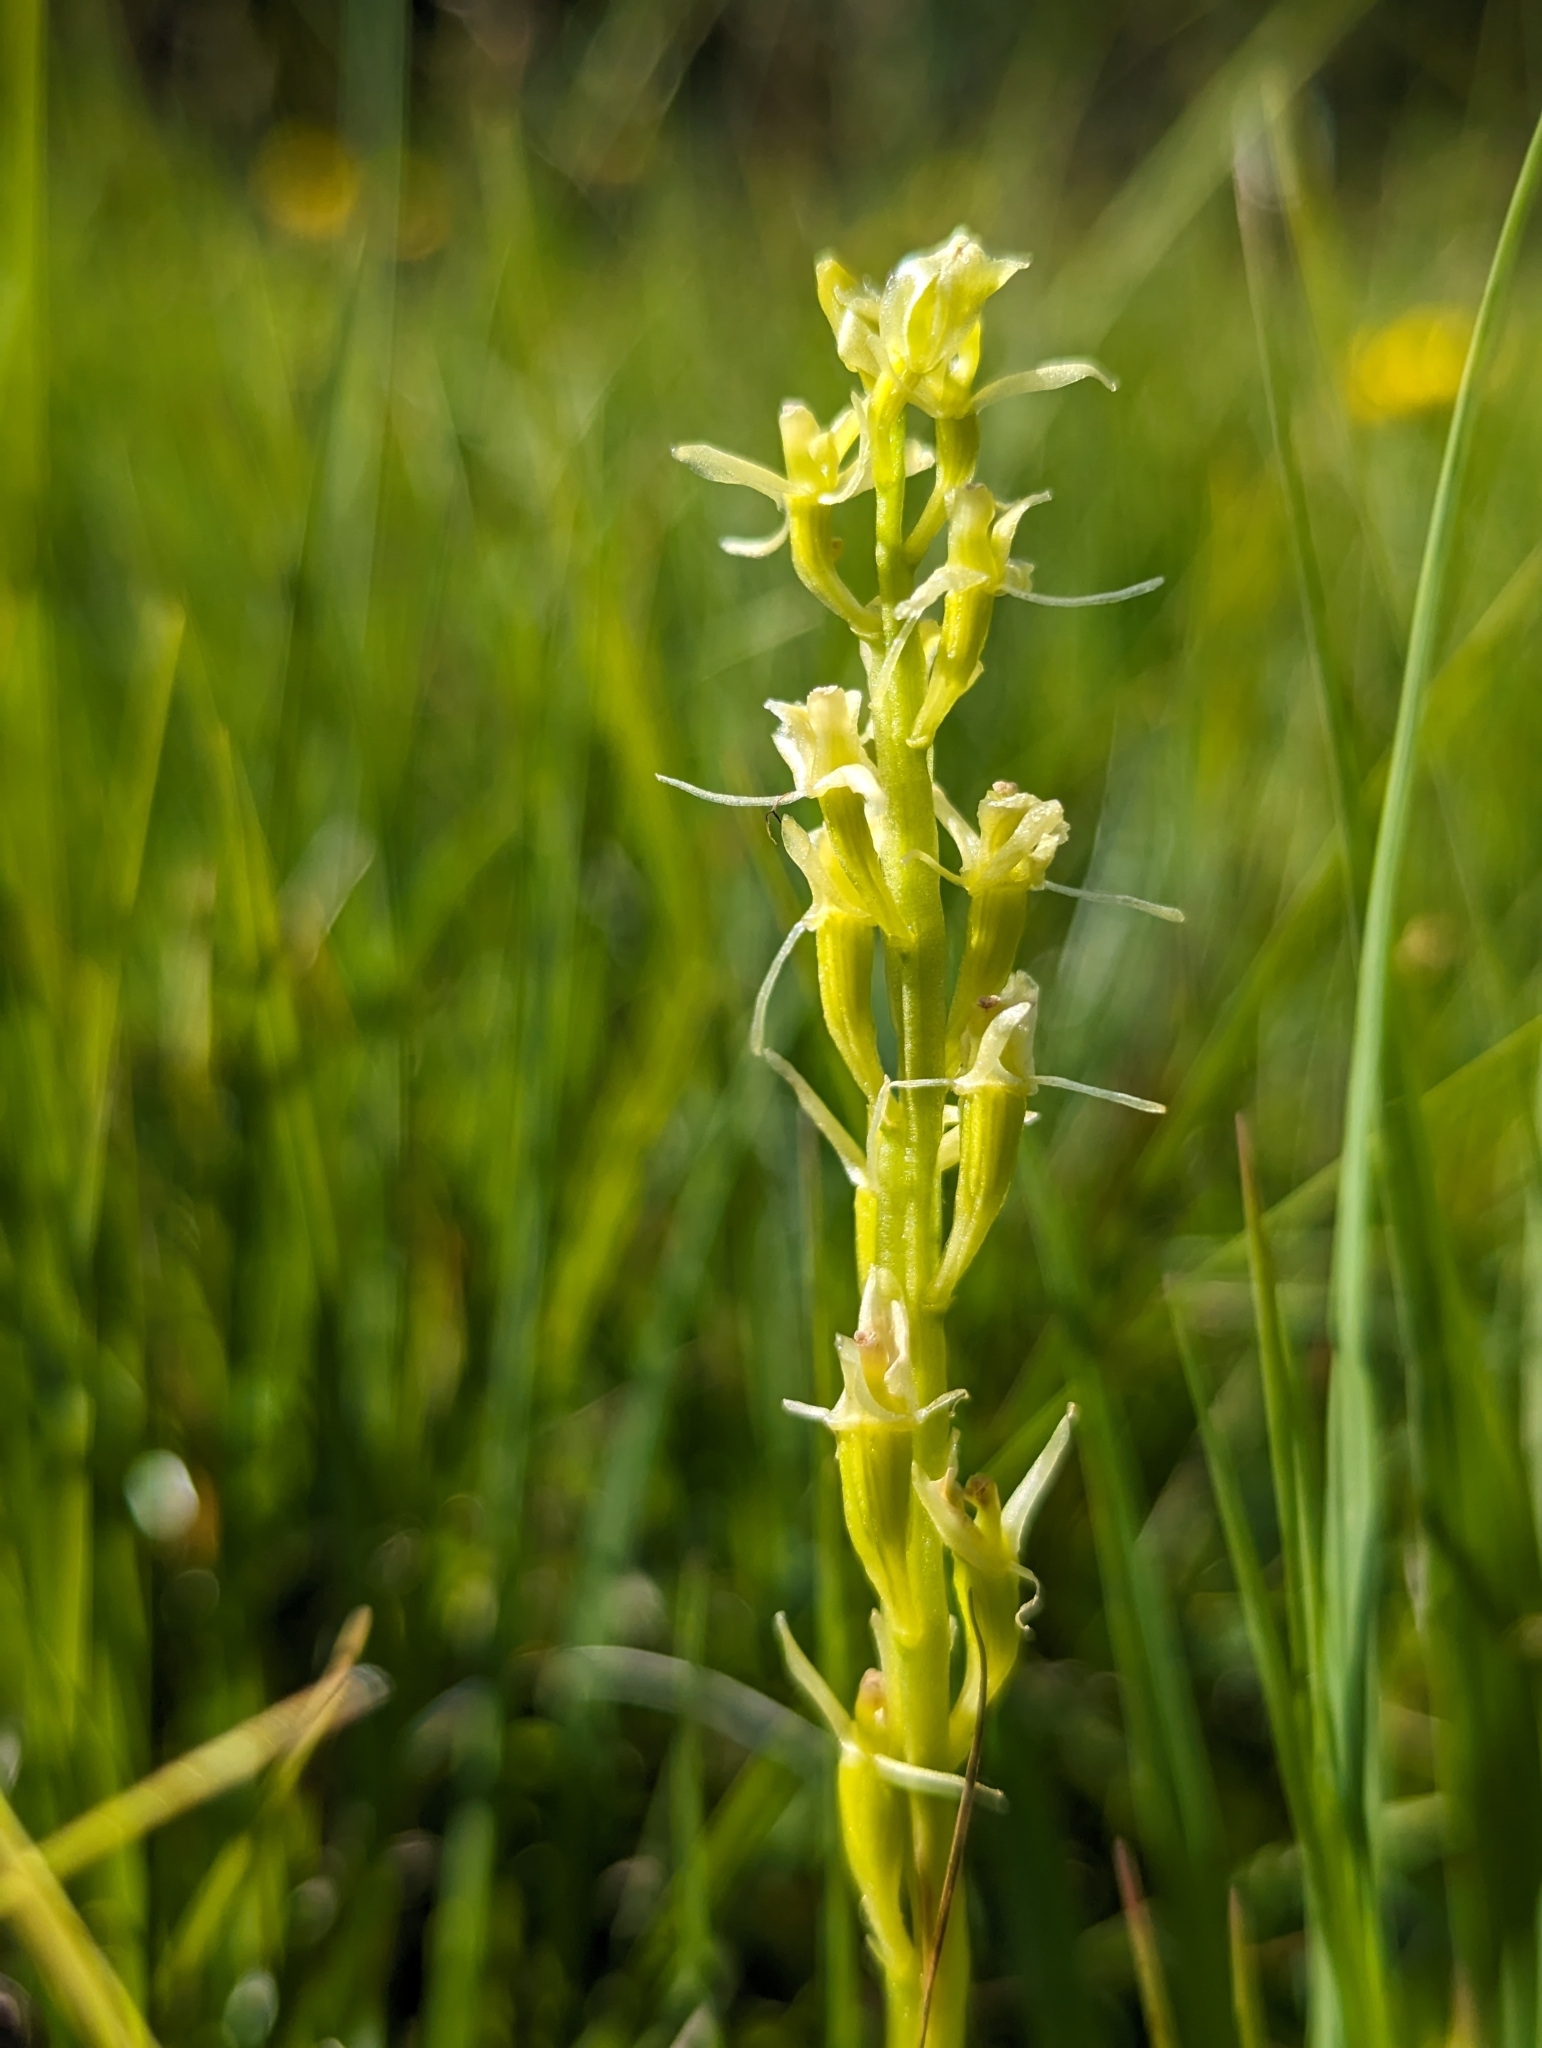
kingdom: Animalia
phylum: Arthropoda
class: Insecta
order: Coleoptera
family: Curculionidae
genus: Liparis
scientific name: Liparis loeselii
